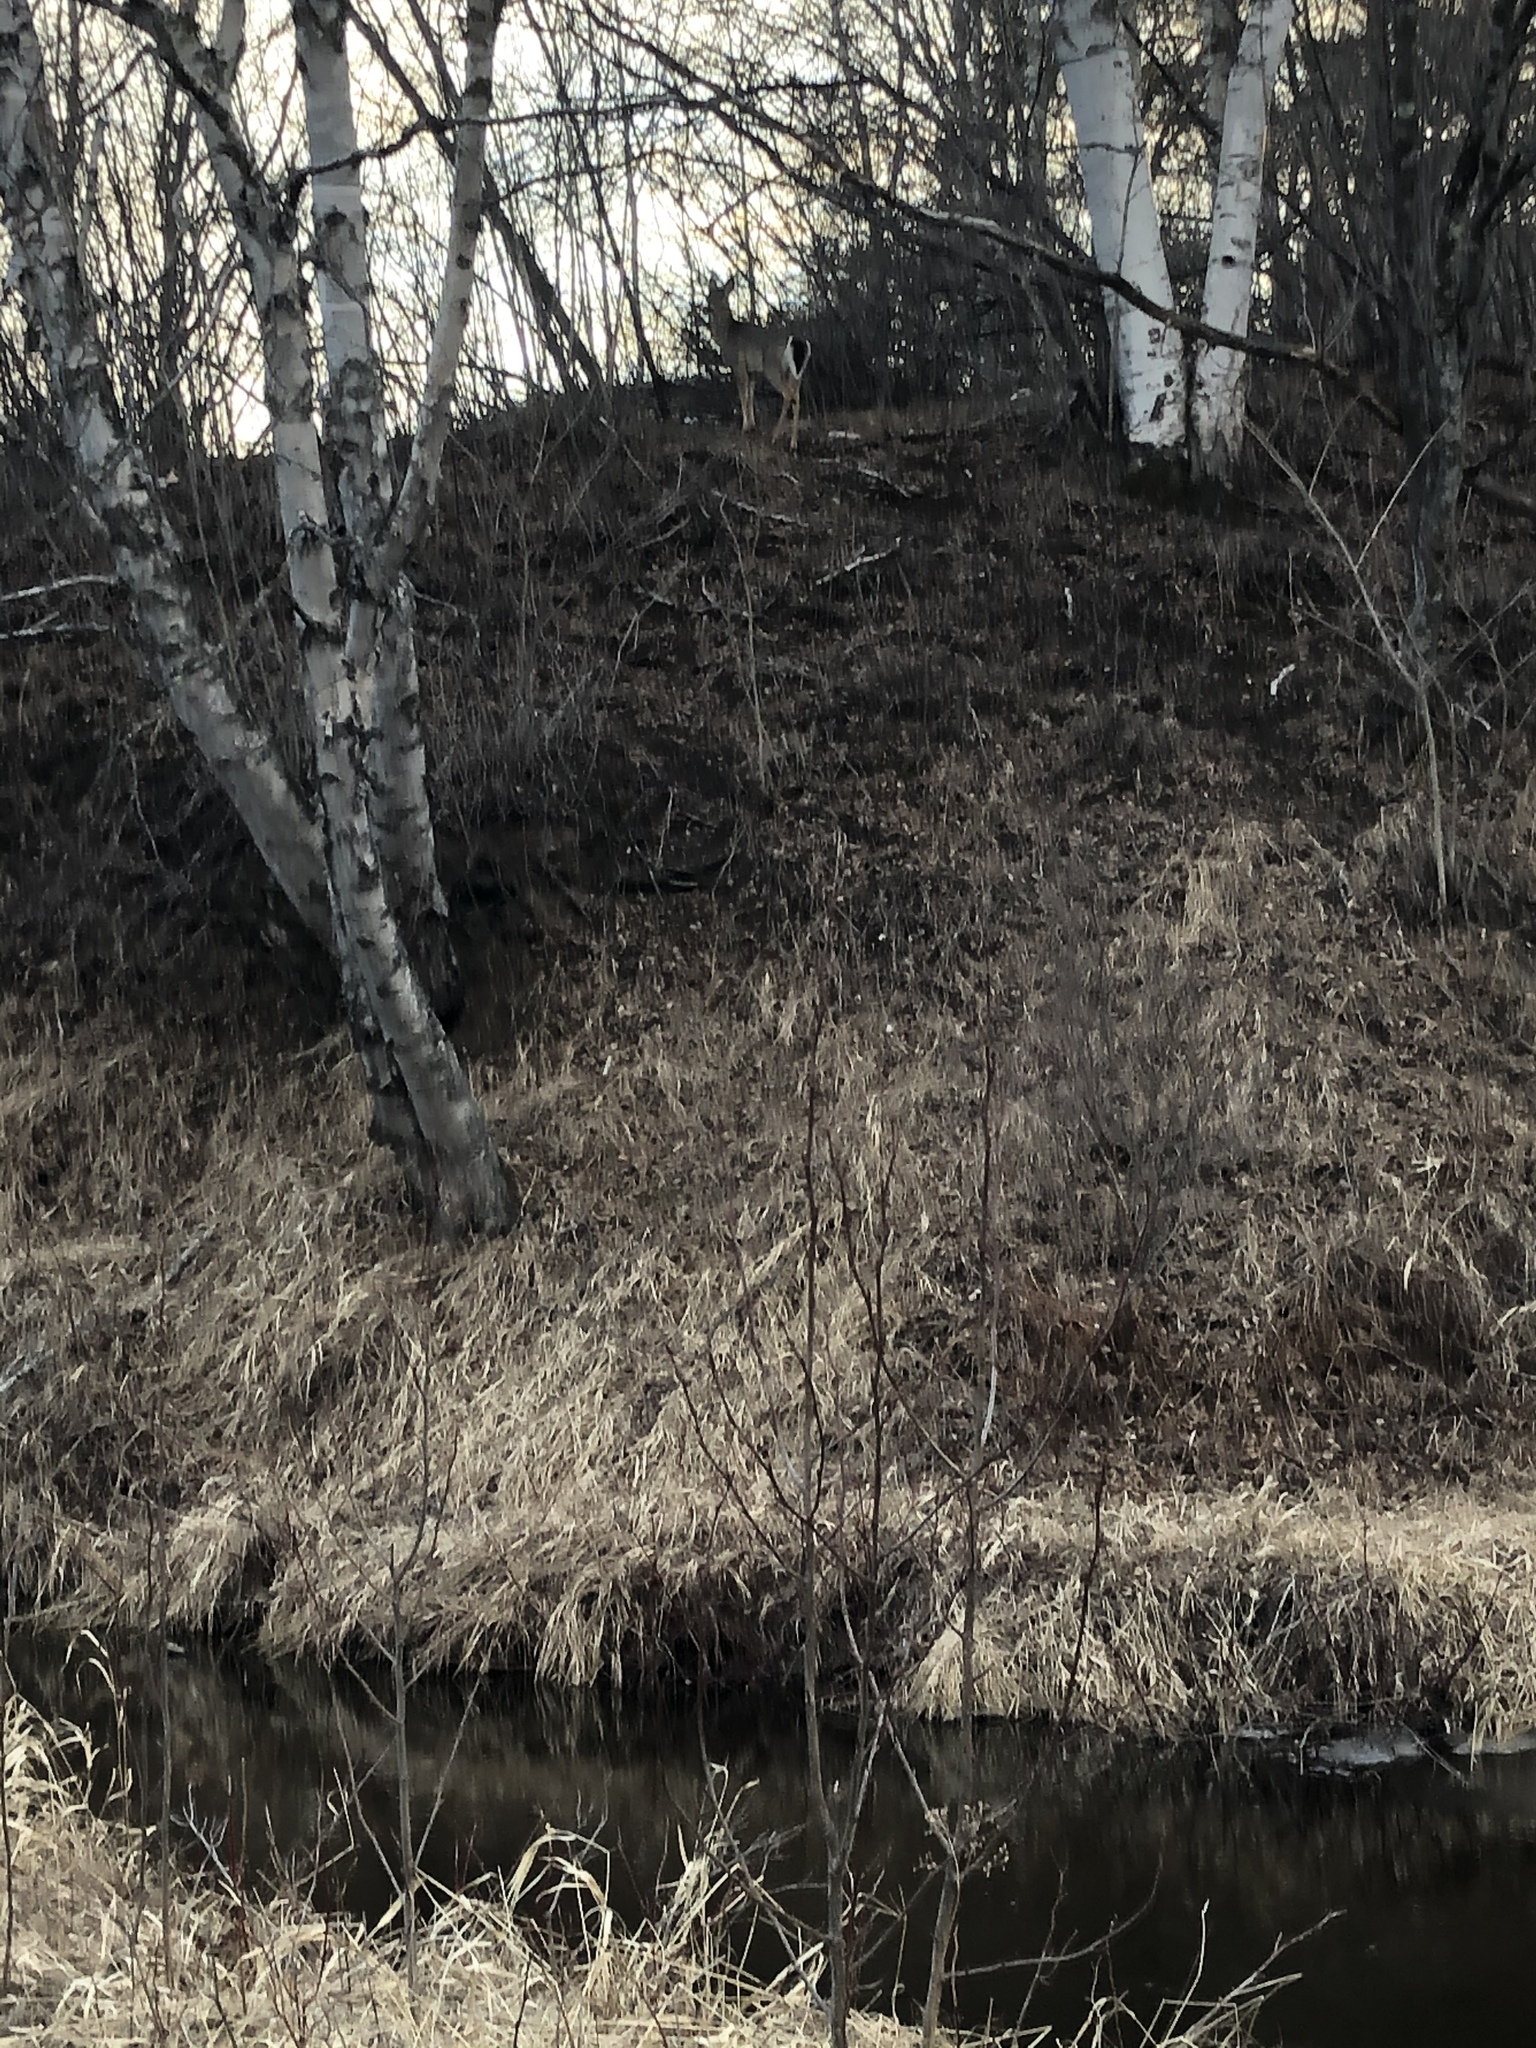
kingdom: Animalia
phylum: Chordata
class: Mammalia
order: Artiodactyla
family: Cervidae
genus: Odocoileus
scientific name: Odocoileus virginianus
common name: White-tailed deer
